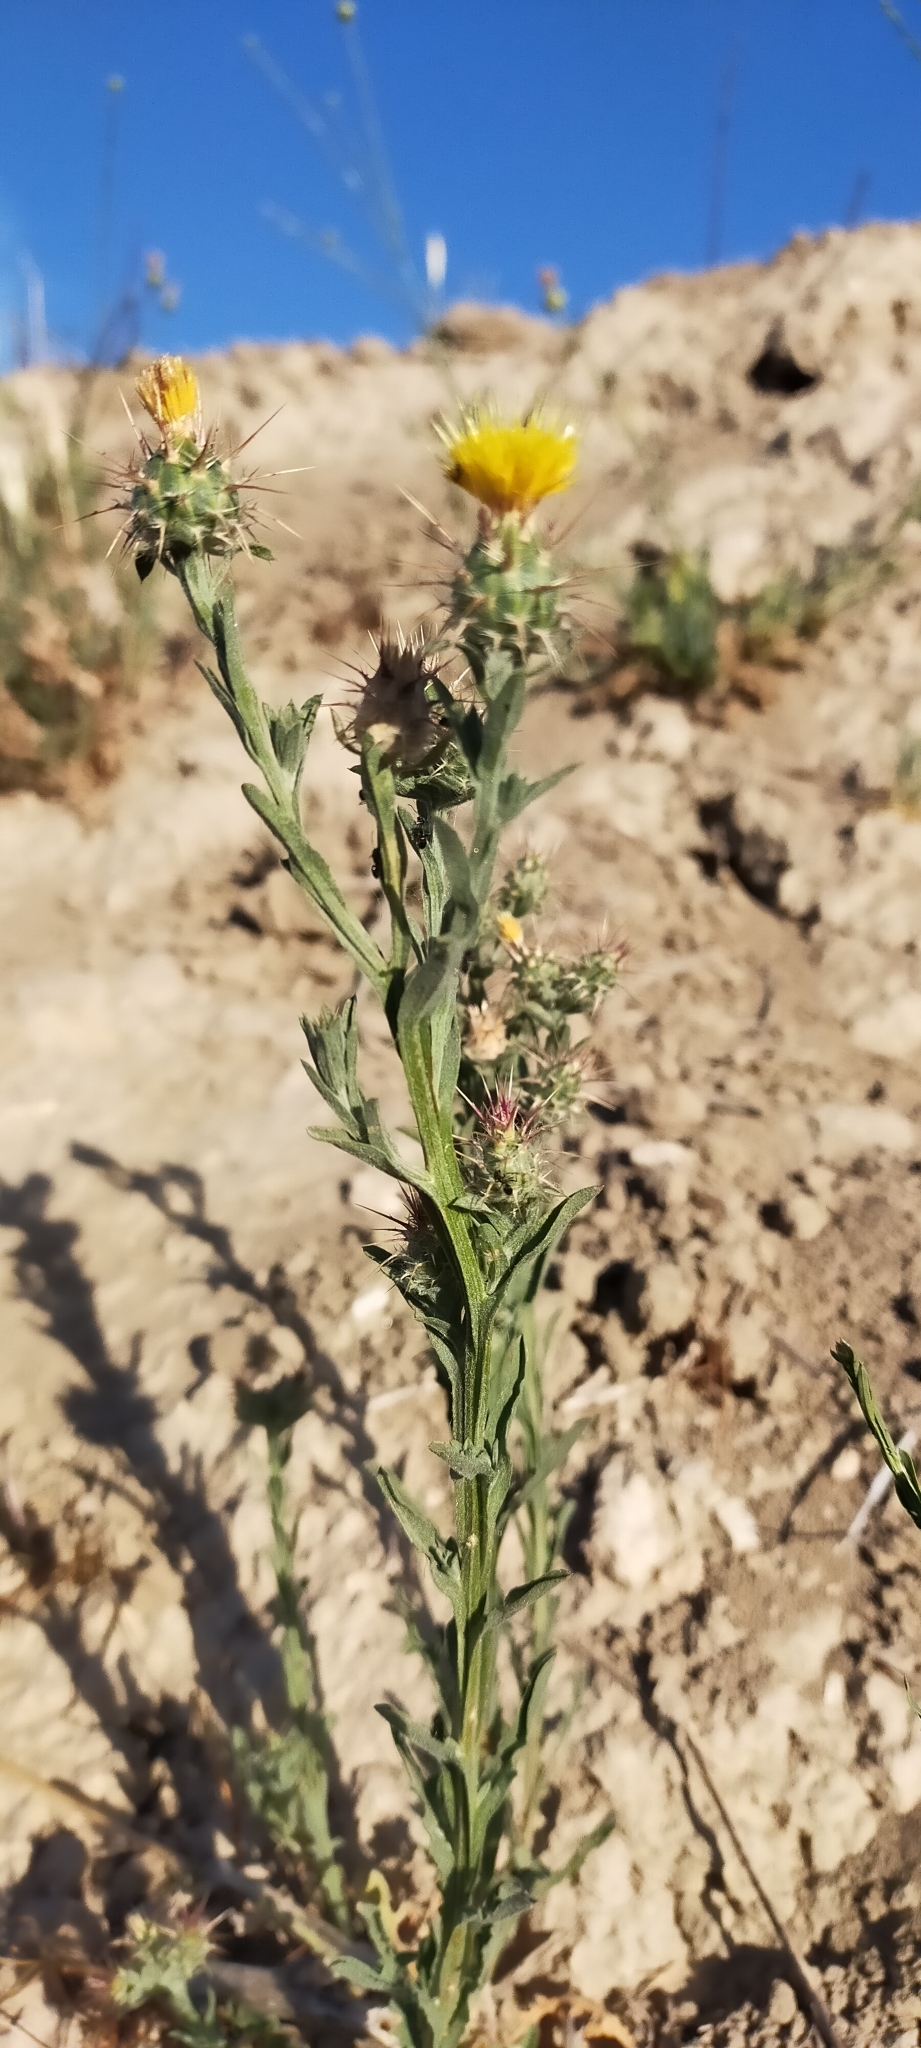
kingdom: Plantae
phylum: Tracheophyta
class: Magnoliopsida
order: Asterales
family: Asteraceae
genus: Centaurea
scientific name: Centaurea melitensis
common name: Maltese star-thistle
